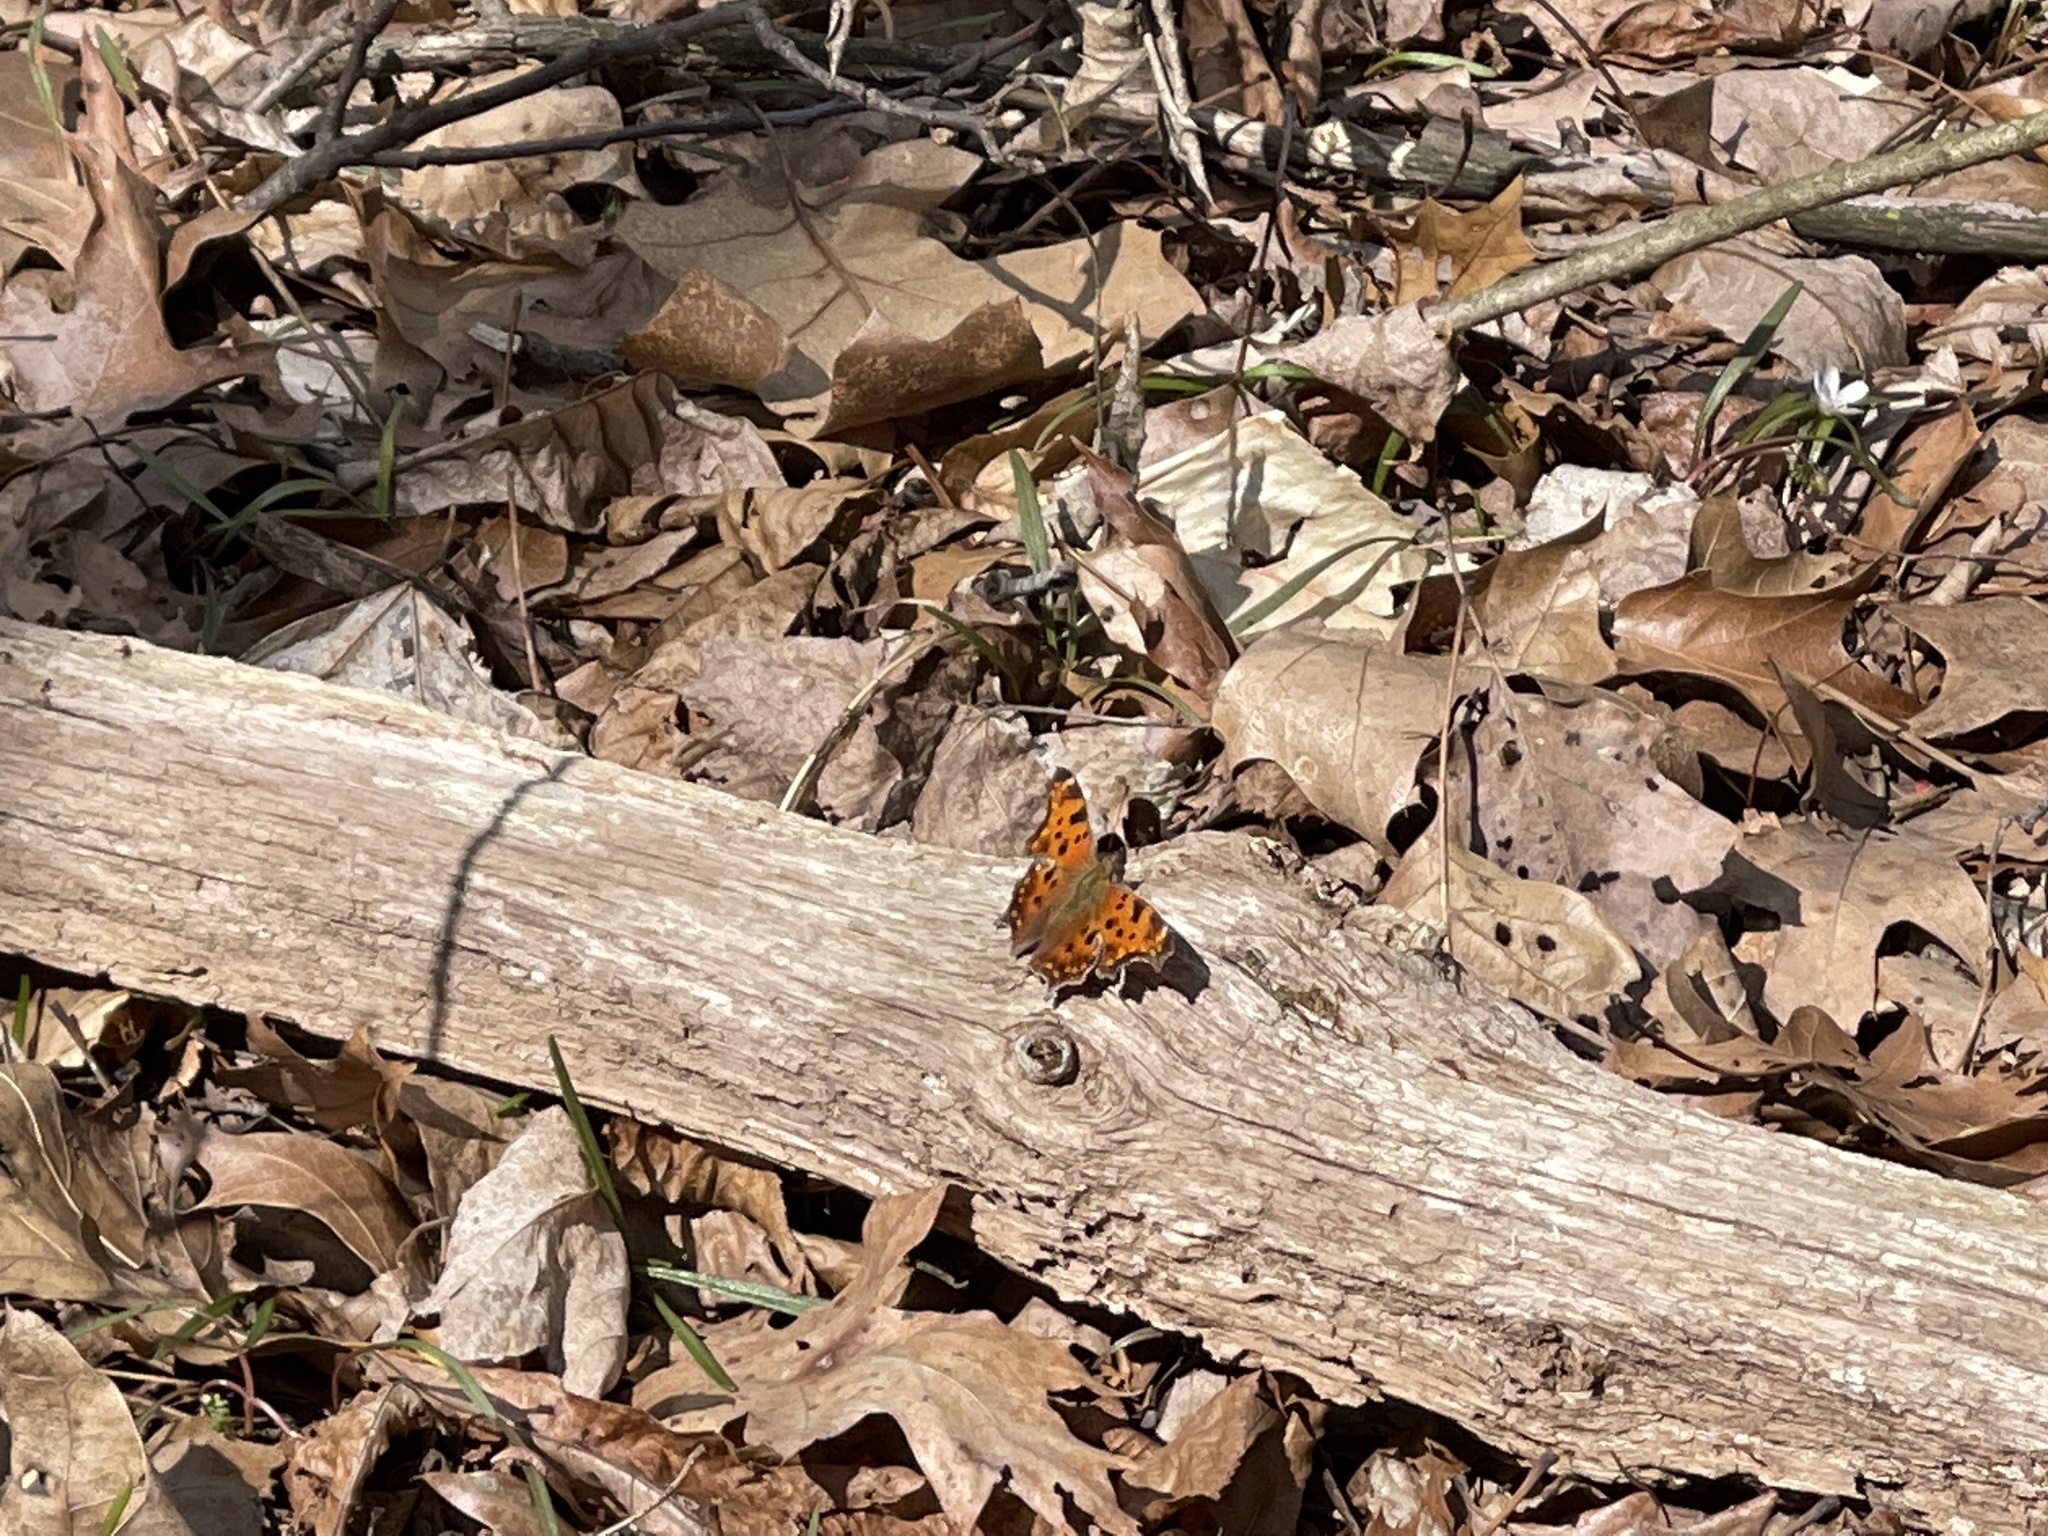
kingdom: Animalia
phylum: Arthropoda
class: Insecta
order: Lepidoptera
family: Nymphalidae
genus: Polygonia
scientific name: Polygonia comma
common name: Eastern comma
